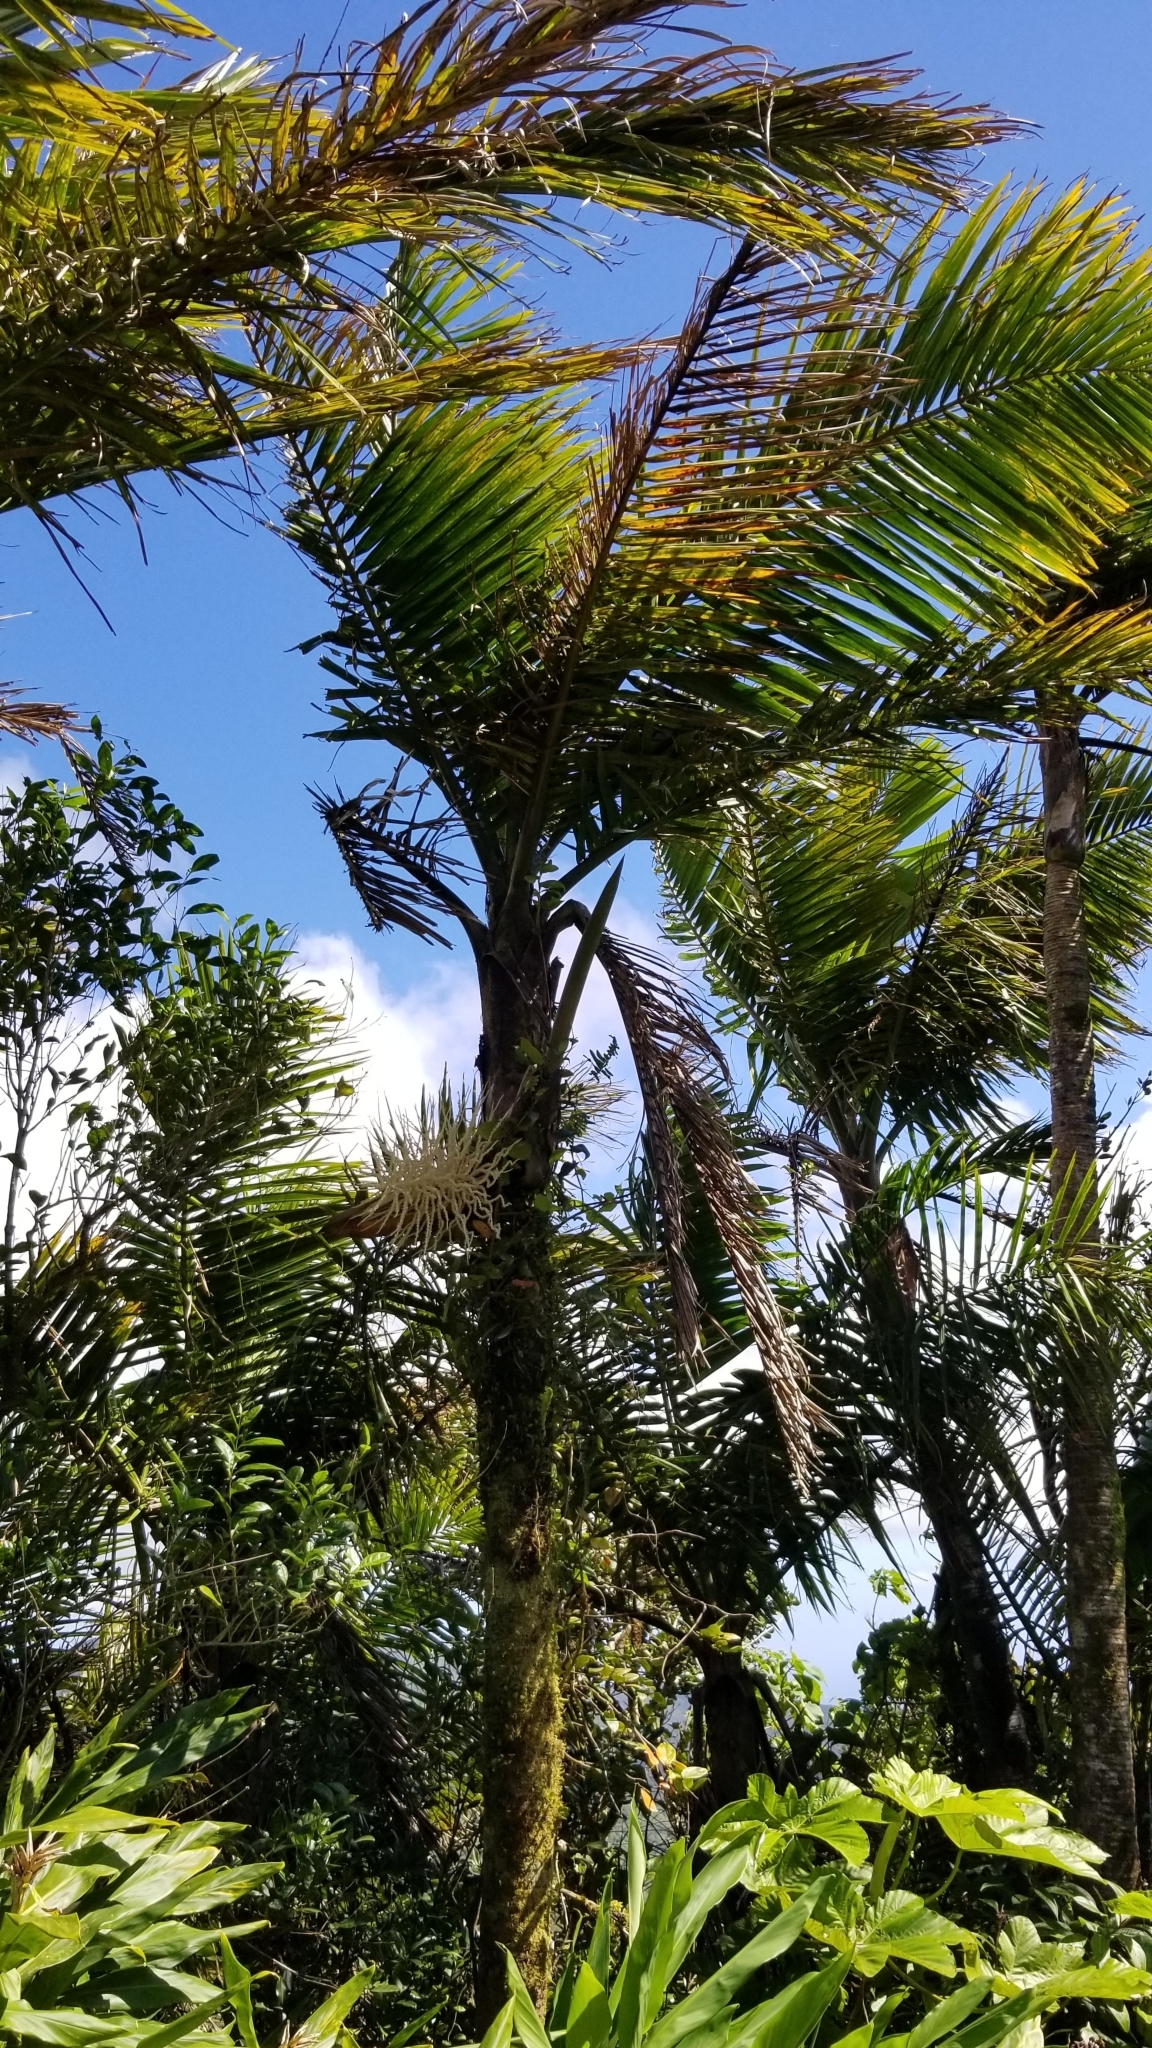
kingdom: Plantae
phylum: Tracheophyta
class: Liliopsida
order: Arecales
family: Arecaceae
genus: Prestoea
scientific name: Prestoea acuminata
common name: Sierran palm
